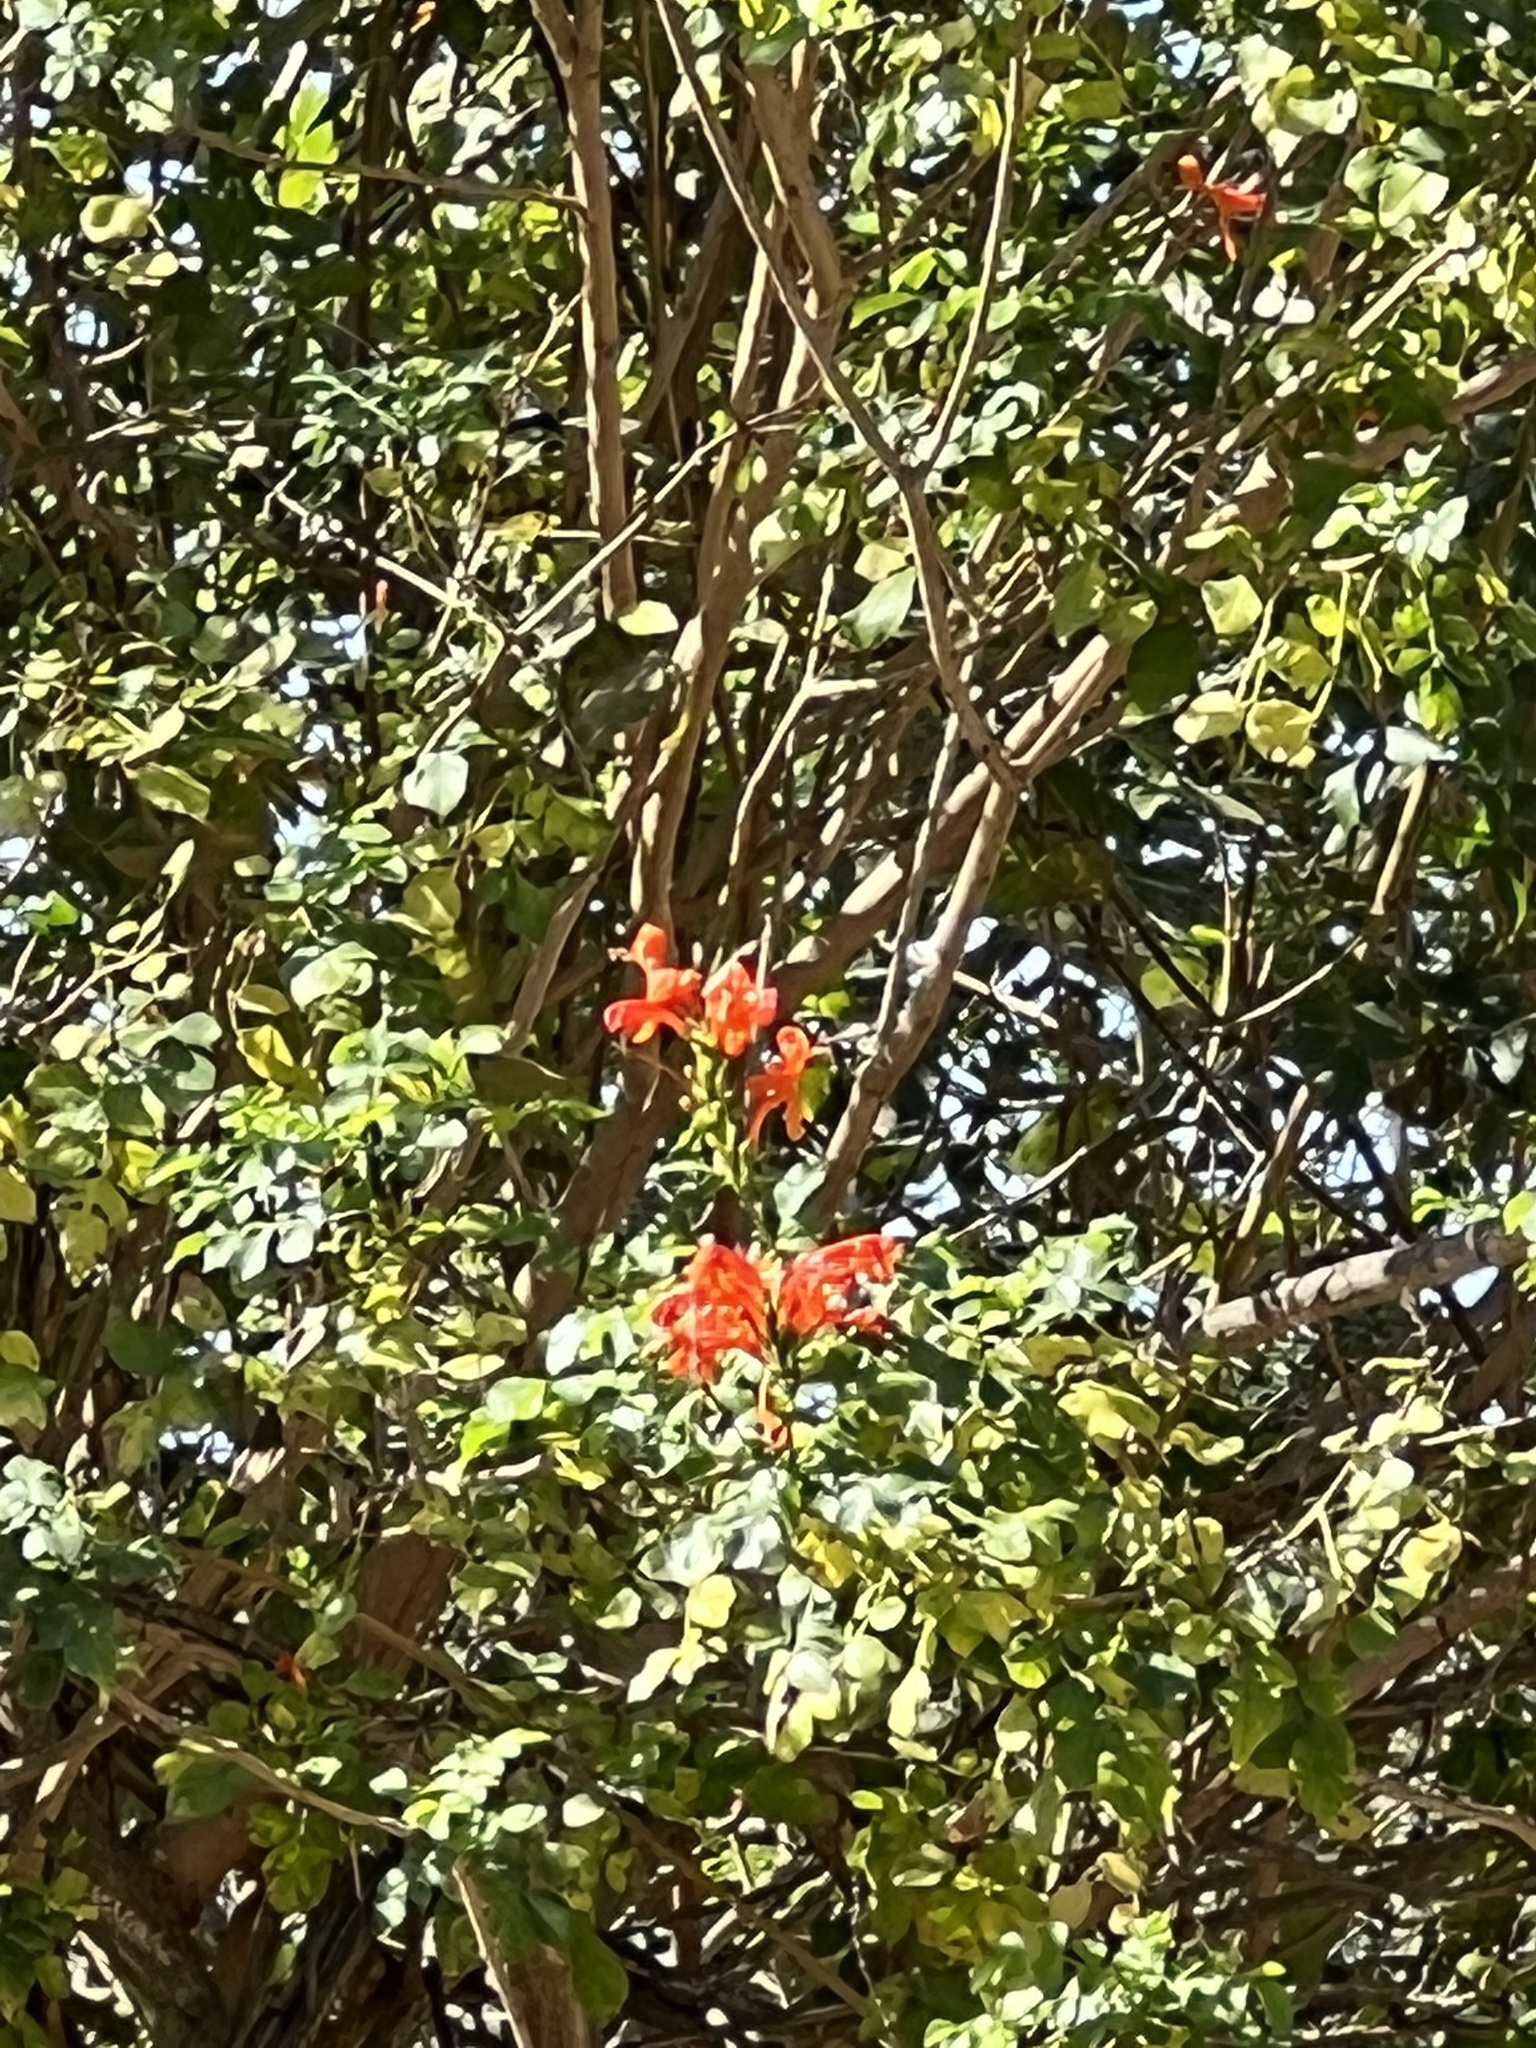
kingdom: Plantae
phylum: Tracheophyta
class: Magnoliopsida
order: Lamiales
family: Bignoniaceae
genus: Tecomaria
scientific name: Tecomaria capensis
